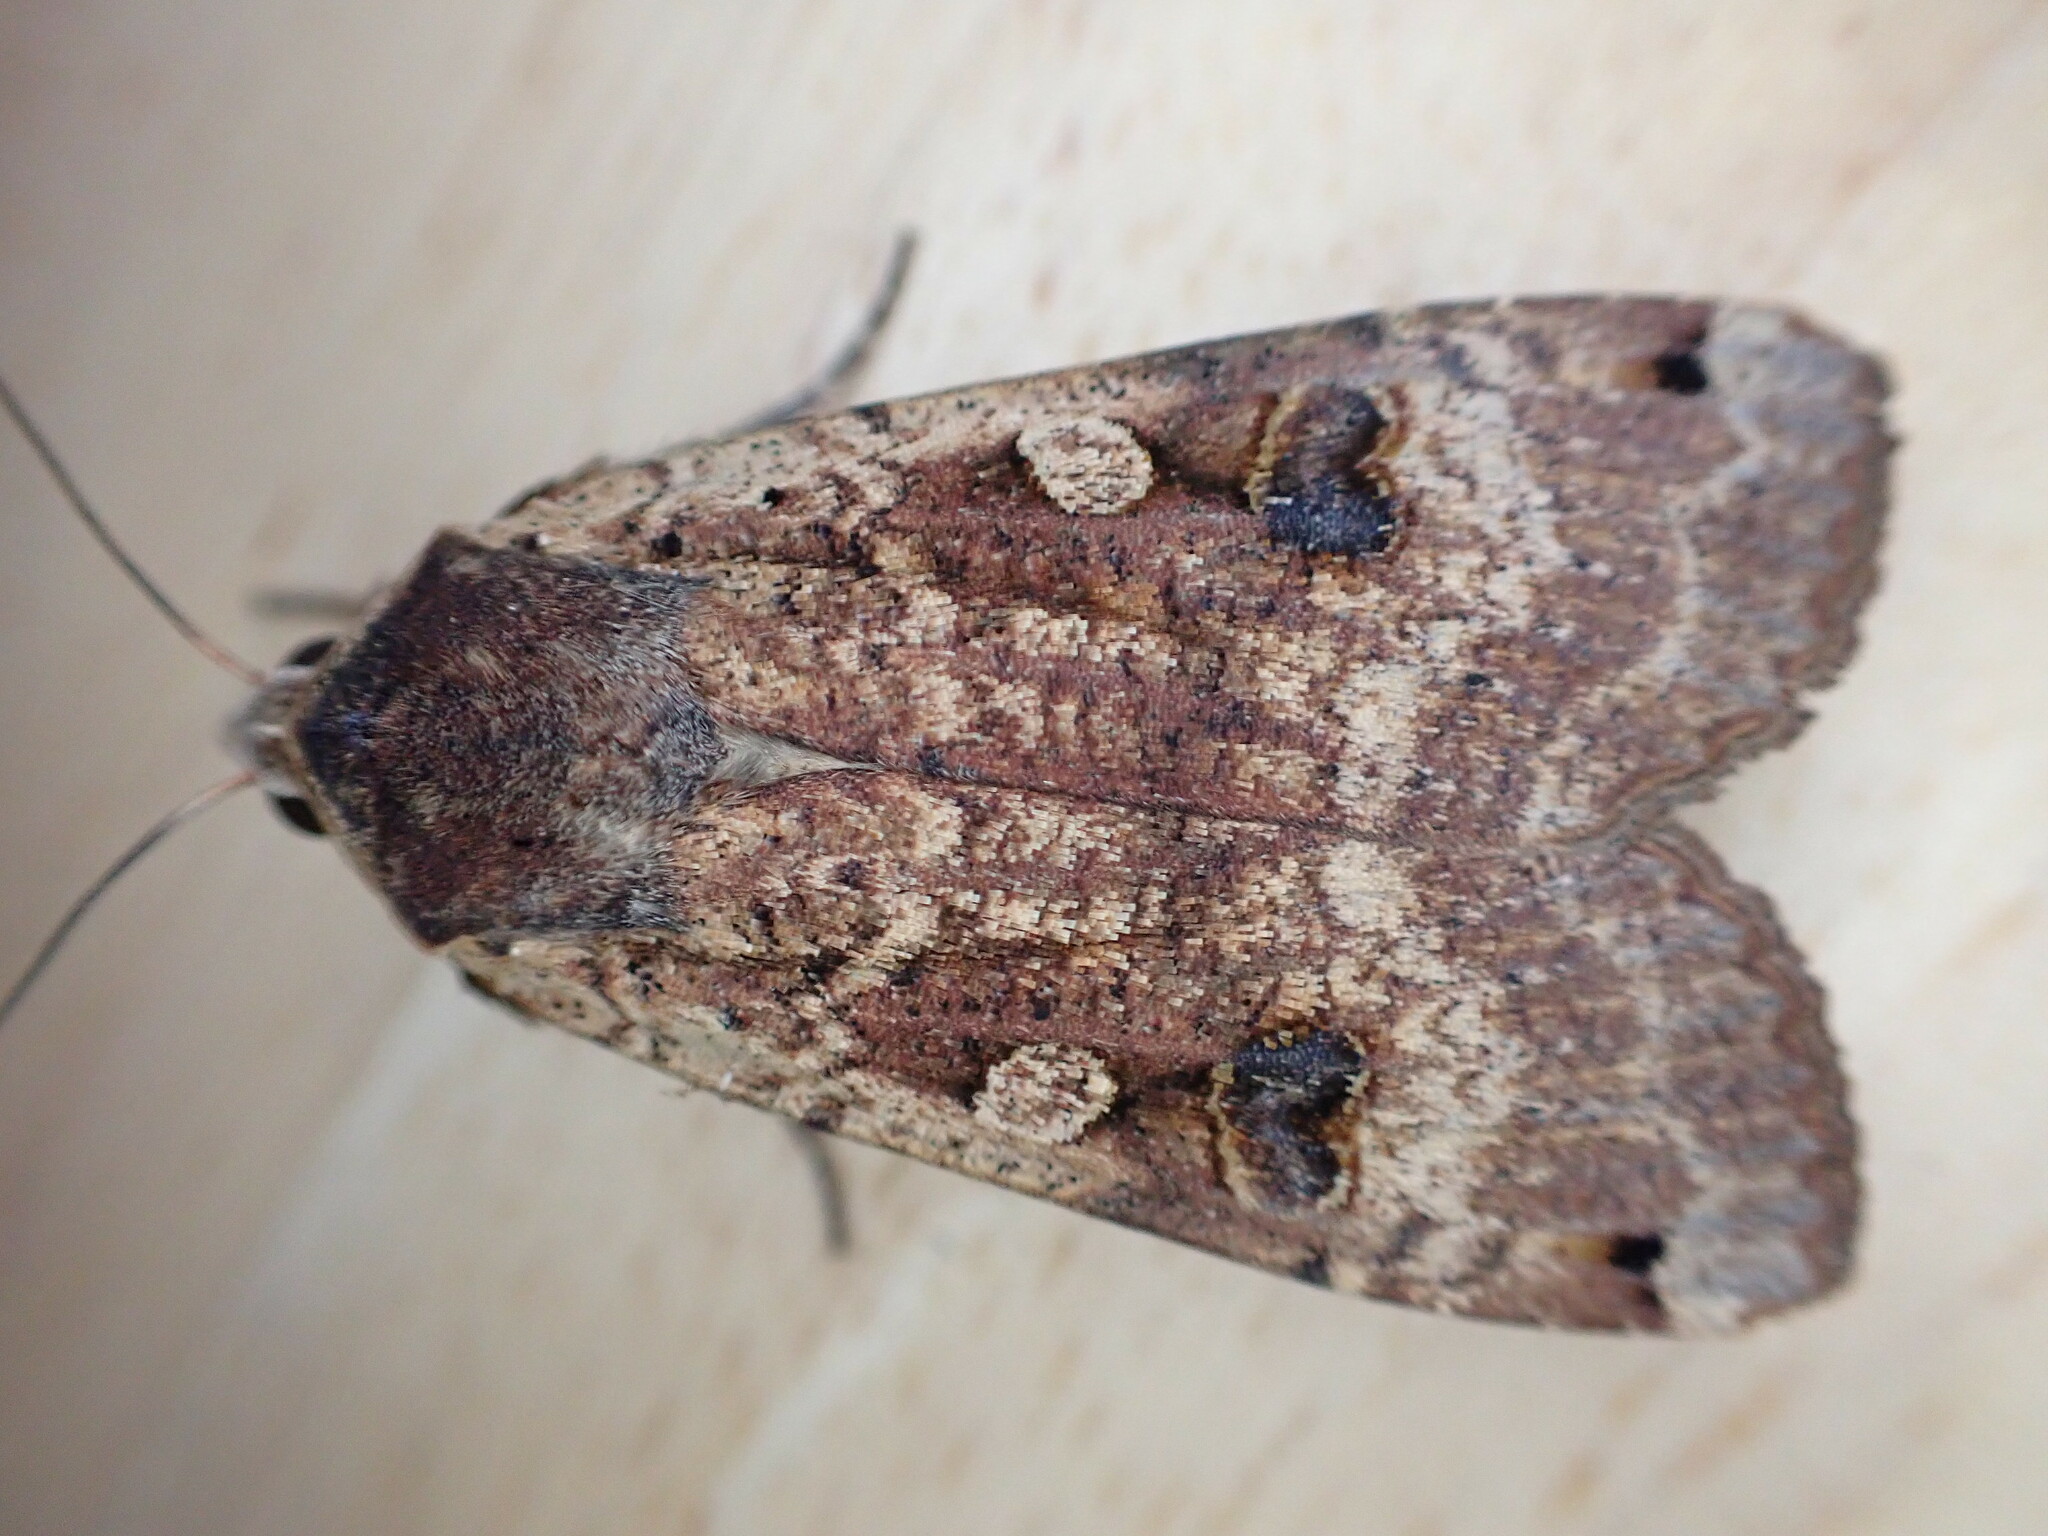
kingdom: Animalia
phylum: Arthropoda
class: Insecta
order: Lepidoptera
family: Noctuidae
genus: Noctua
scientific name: Noctua pronuba
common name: Large yellow underwing
